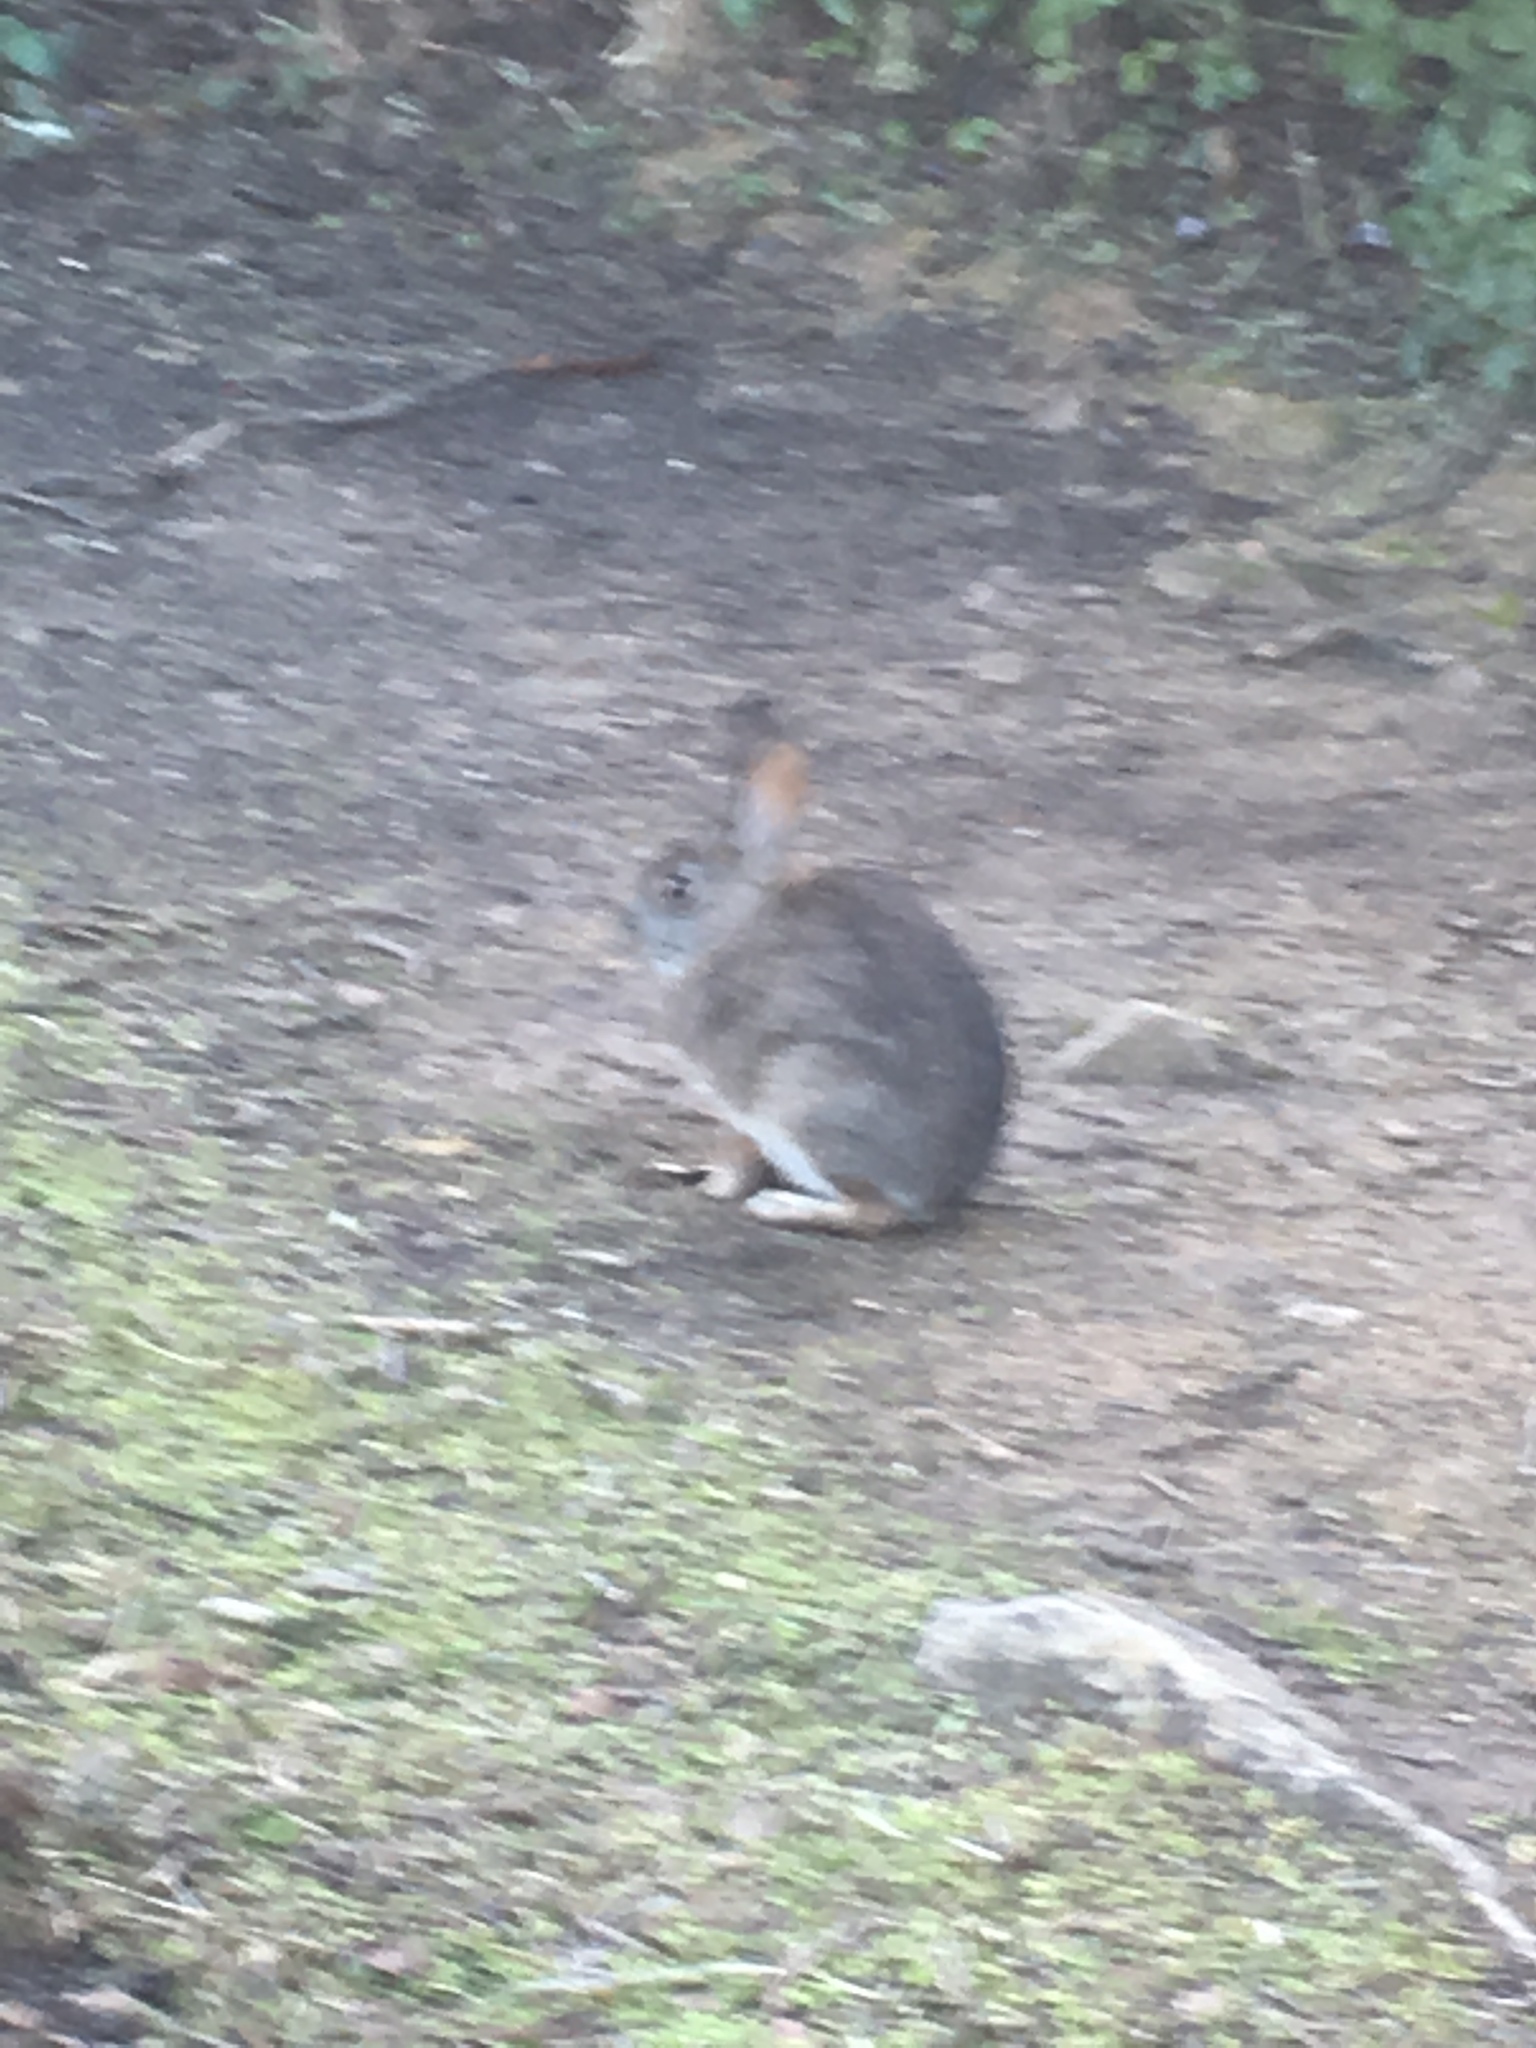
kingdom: Animalia
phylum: Chordata
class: Mammalia
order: Lagomorpha
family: Leporidae
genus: Sylvilagus
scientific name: Sylvilagus bachmani
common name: Brush rabbit
